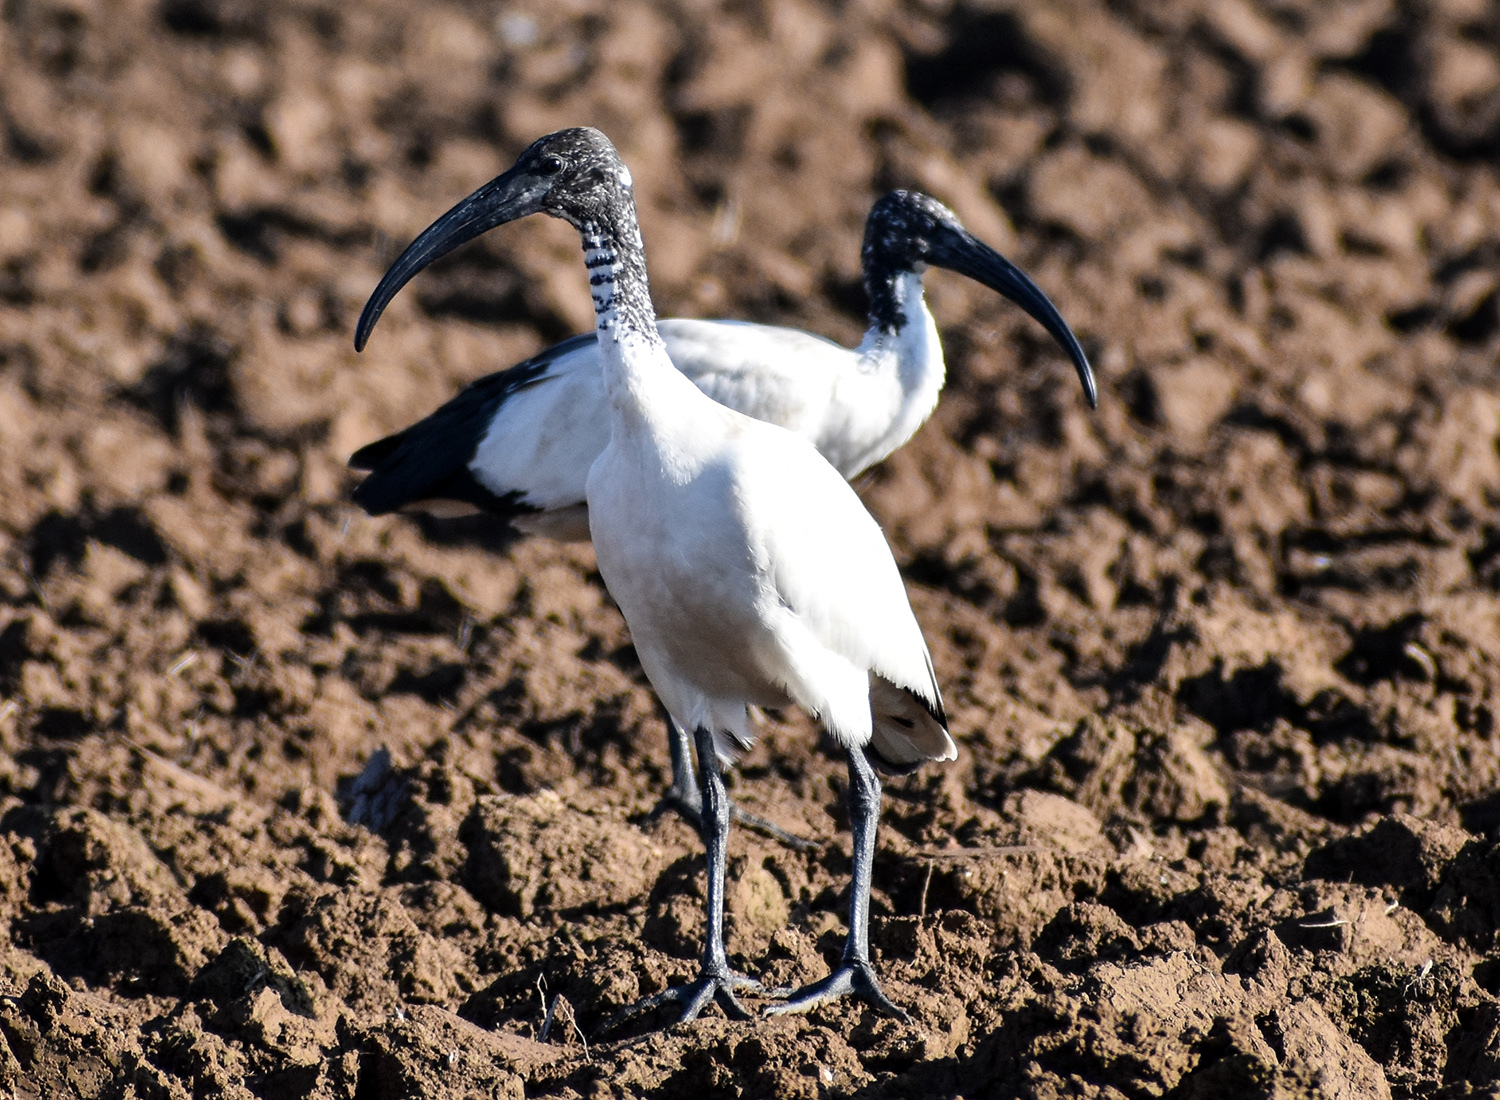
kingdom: Animalia
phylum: Chordata
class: Aves
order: Pelecaniformes
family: Threskiornithidae
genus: Threskiornis
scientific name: Threskiornis aethiopicus
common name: Sacred ibis
